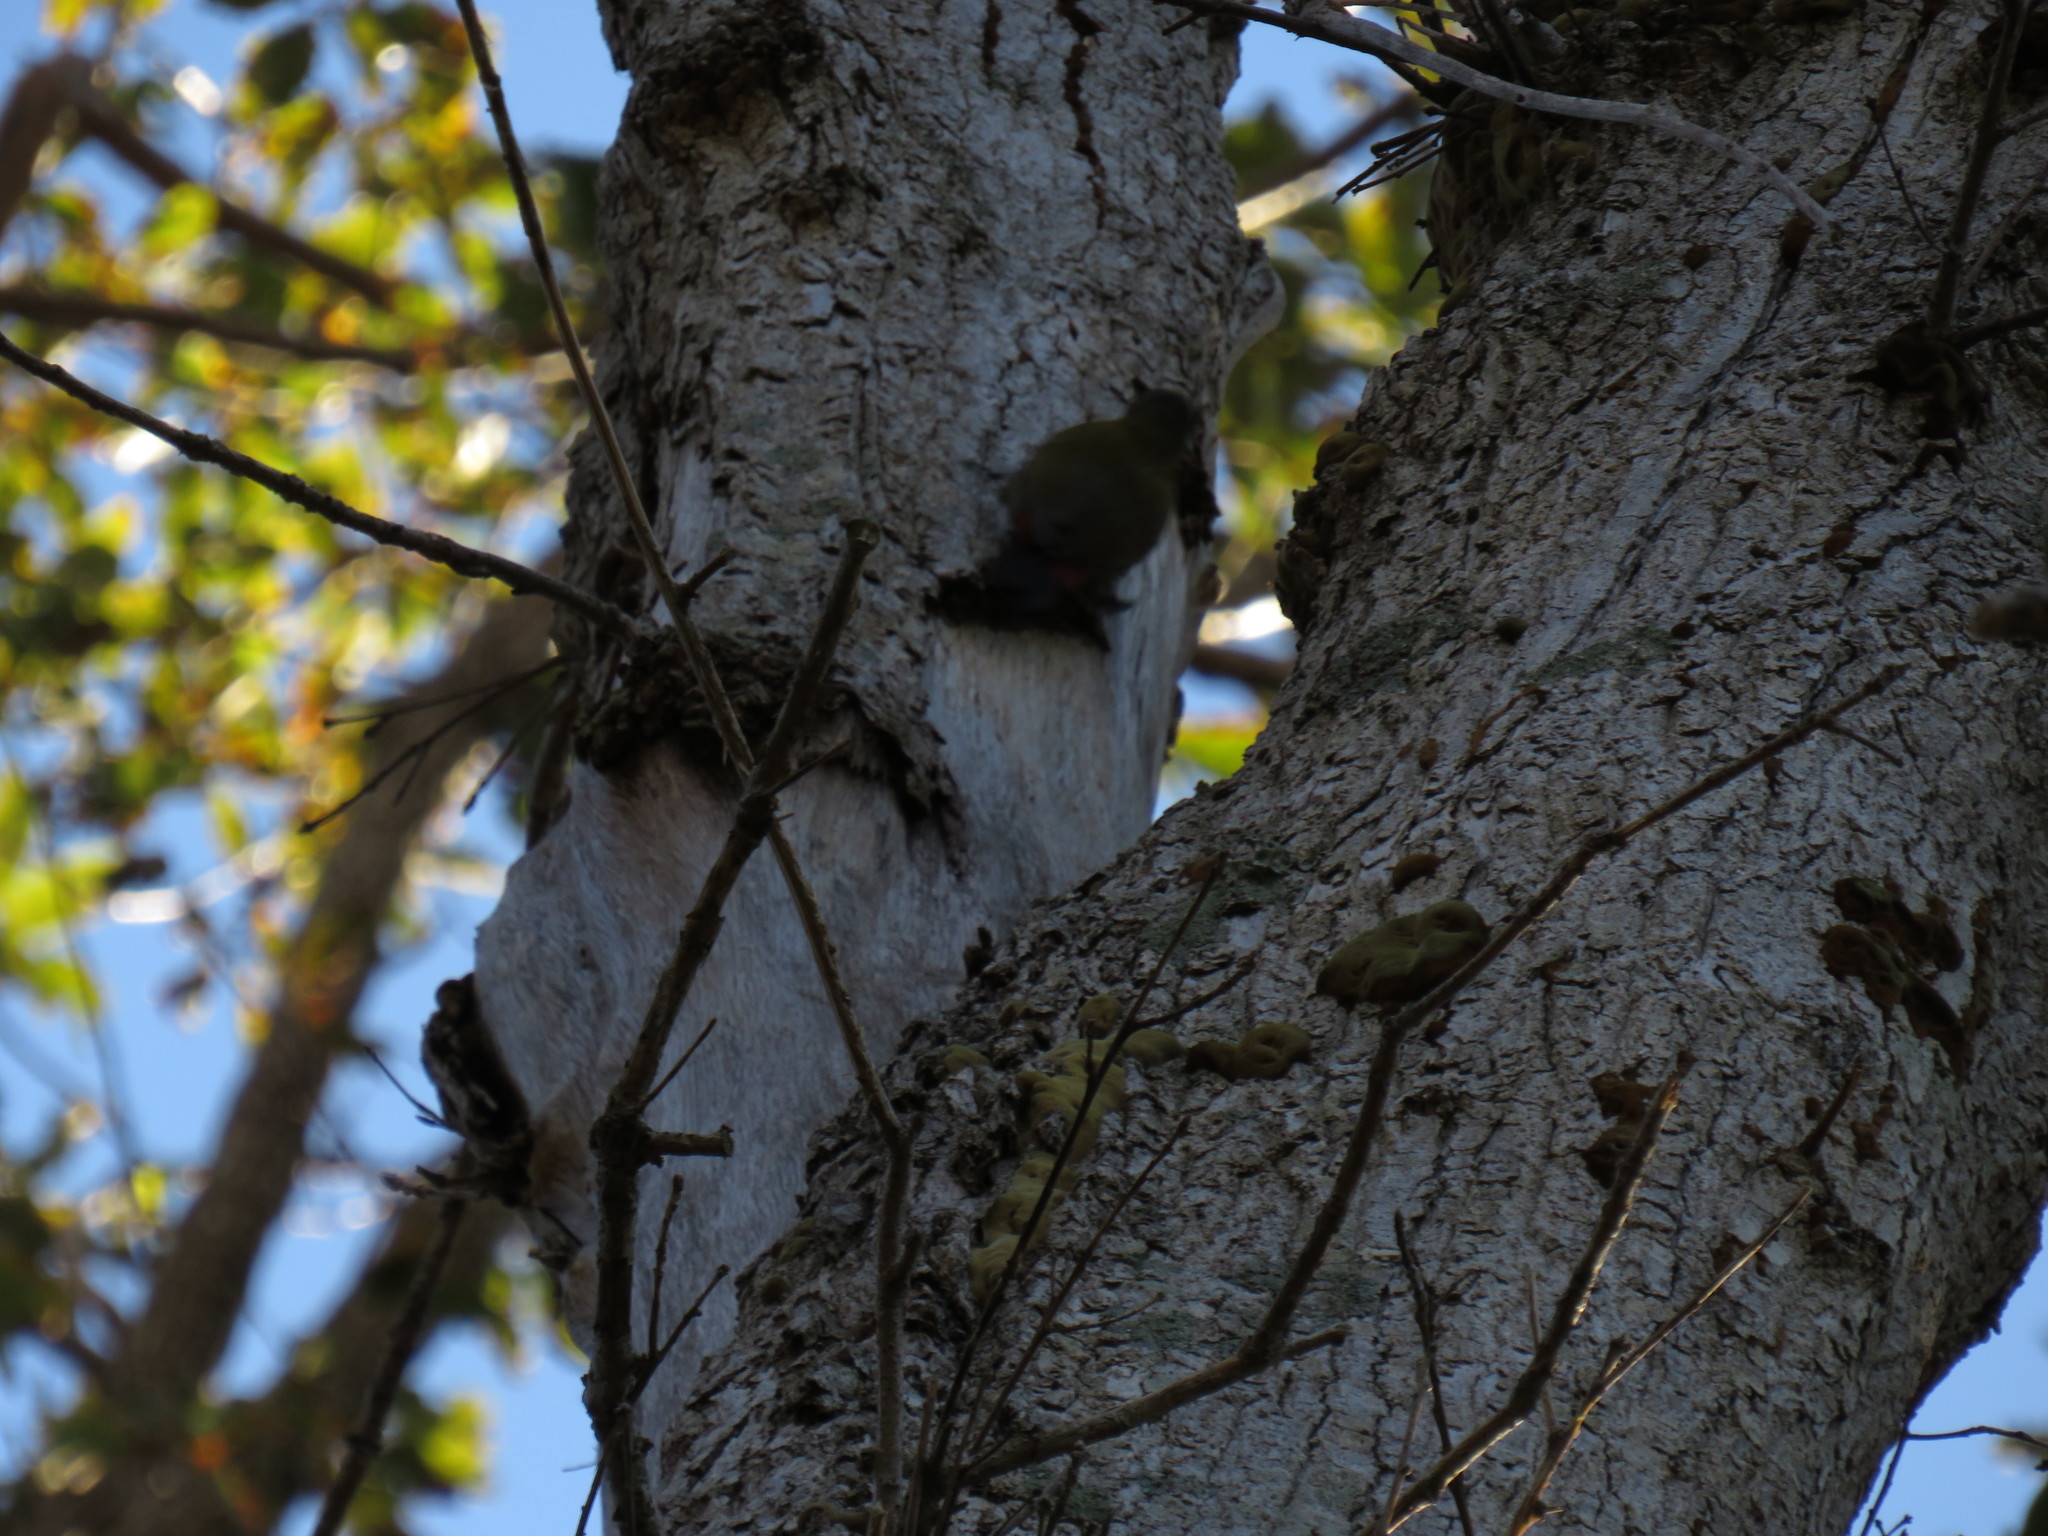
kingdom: Animalia
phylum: Chordata
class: Aves
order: Piciformes
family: Picidae
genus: Dendropicos
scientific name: Dendropicos griseocephalus
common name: Olive woodpecker
